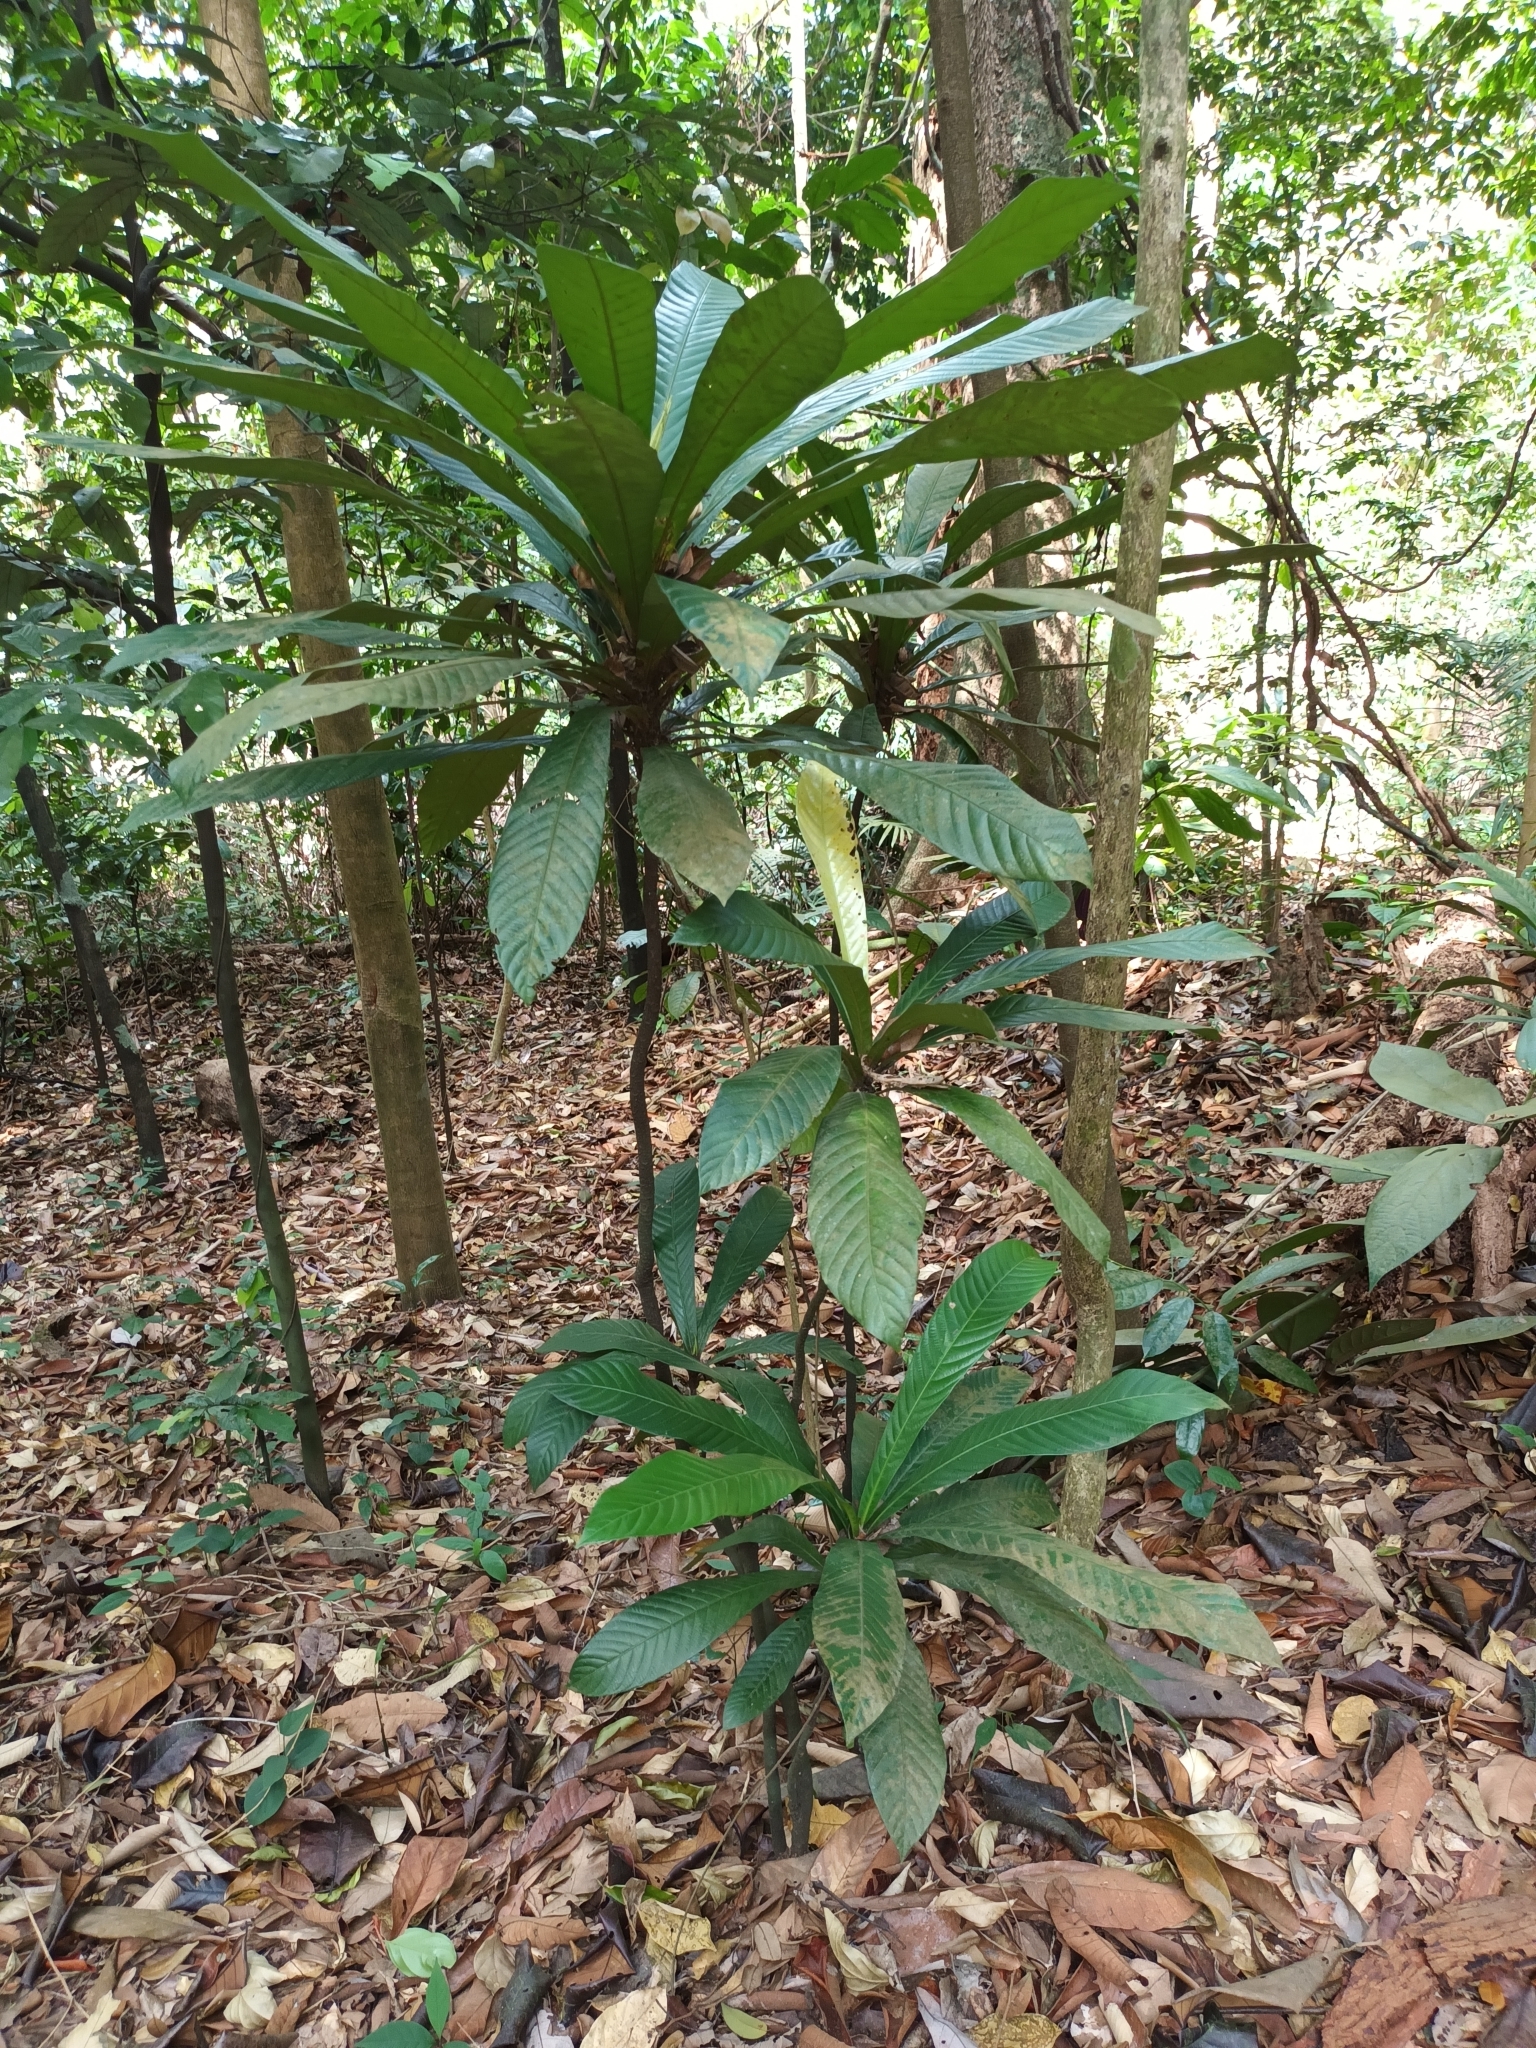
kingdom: Plantae
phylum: Tracheophyta
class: Magnoliopsida
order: Malpighiales
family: Euphorbiaceae
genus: Agrostistachys
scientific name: Agrostistachys sessilifolia
